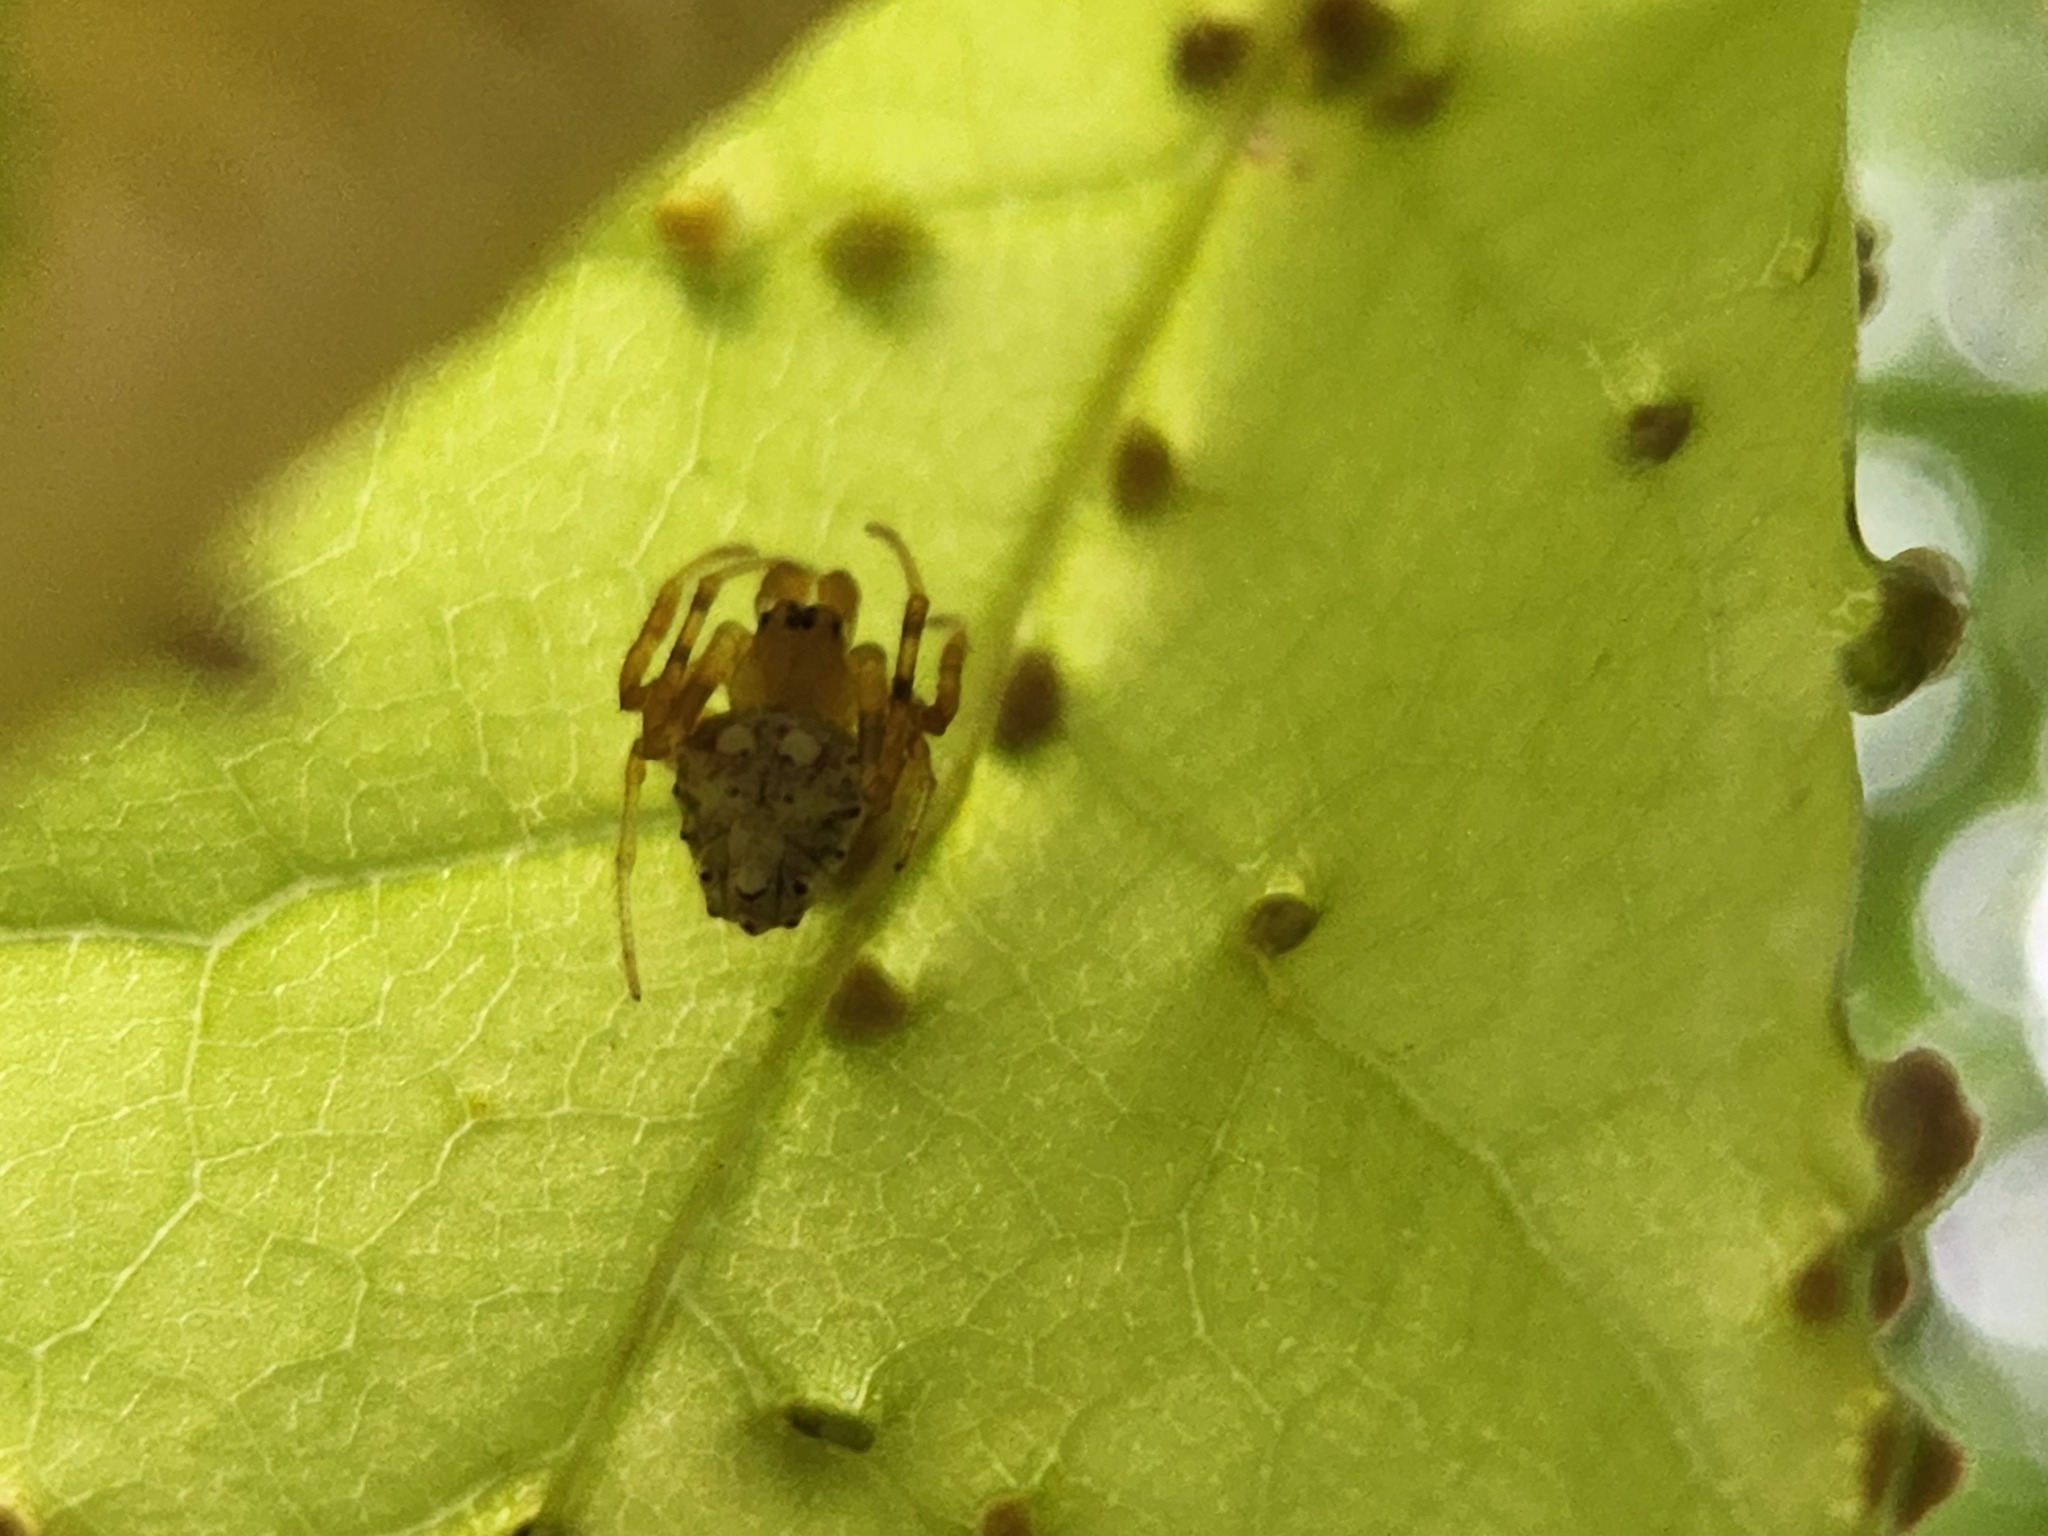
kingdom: Animalia
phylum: Arthropoda
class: Arachnida
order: Araneae
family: Araneidae
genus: Verrucosa
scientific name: Verrucosa arenata
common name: Orb weavers
